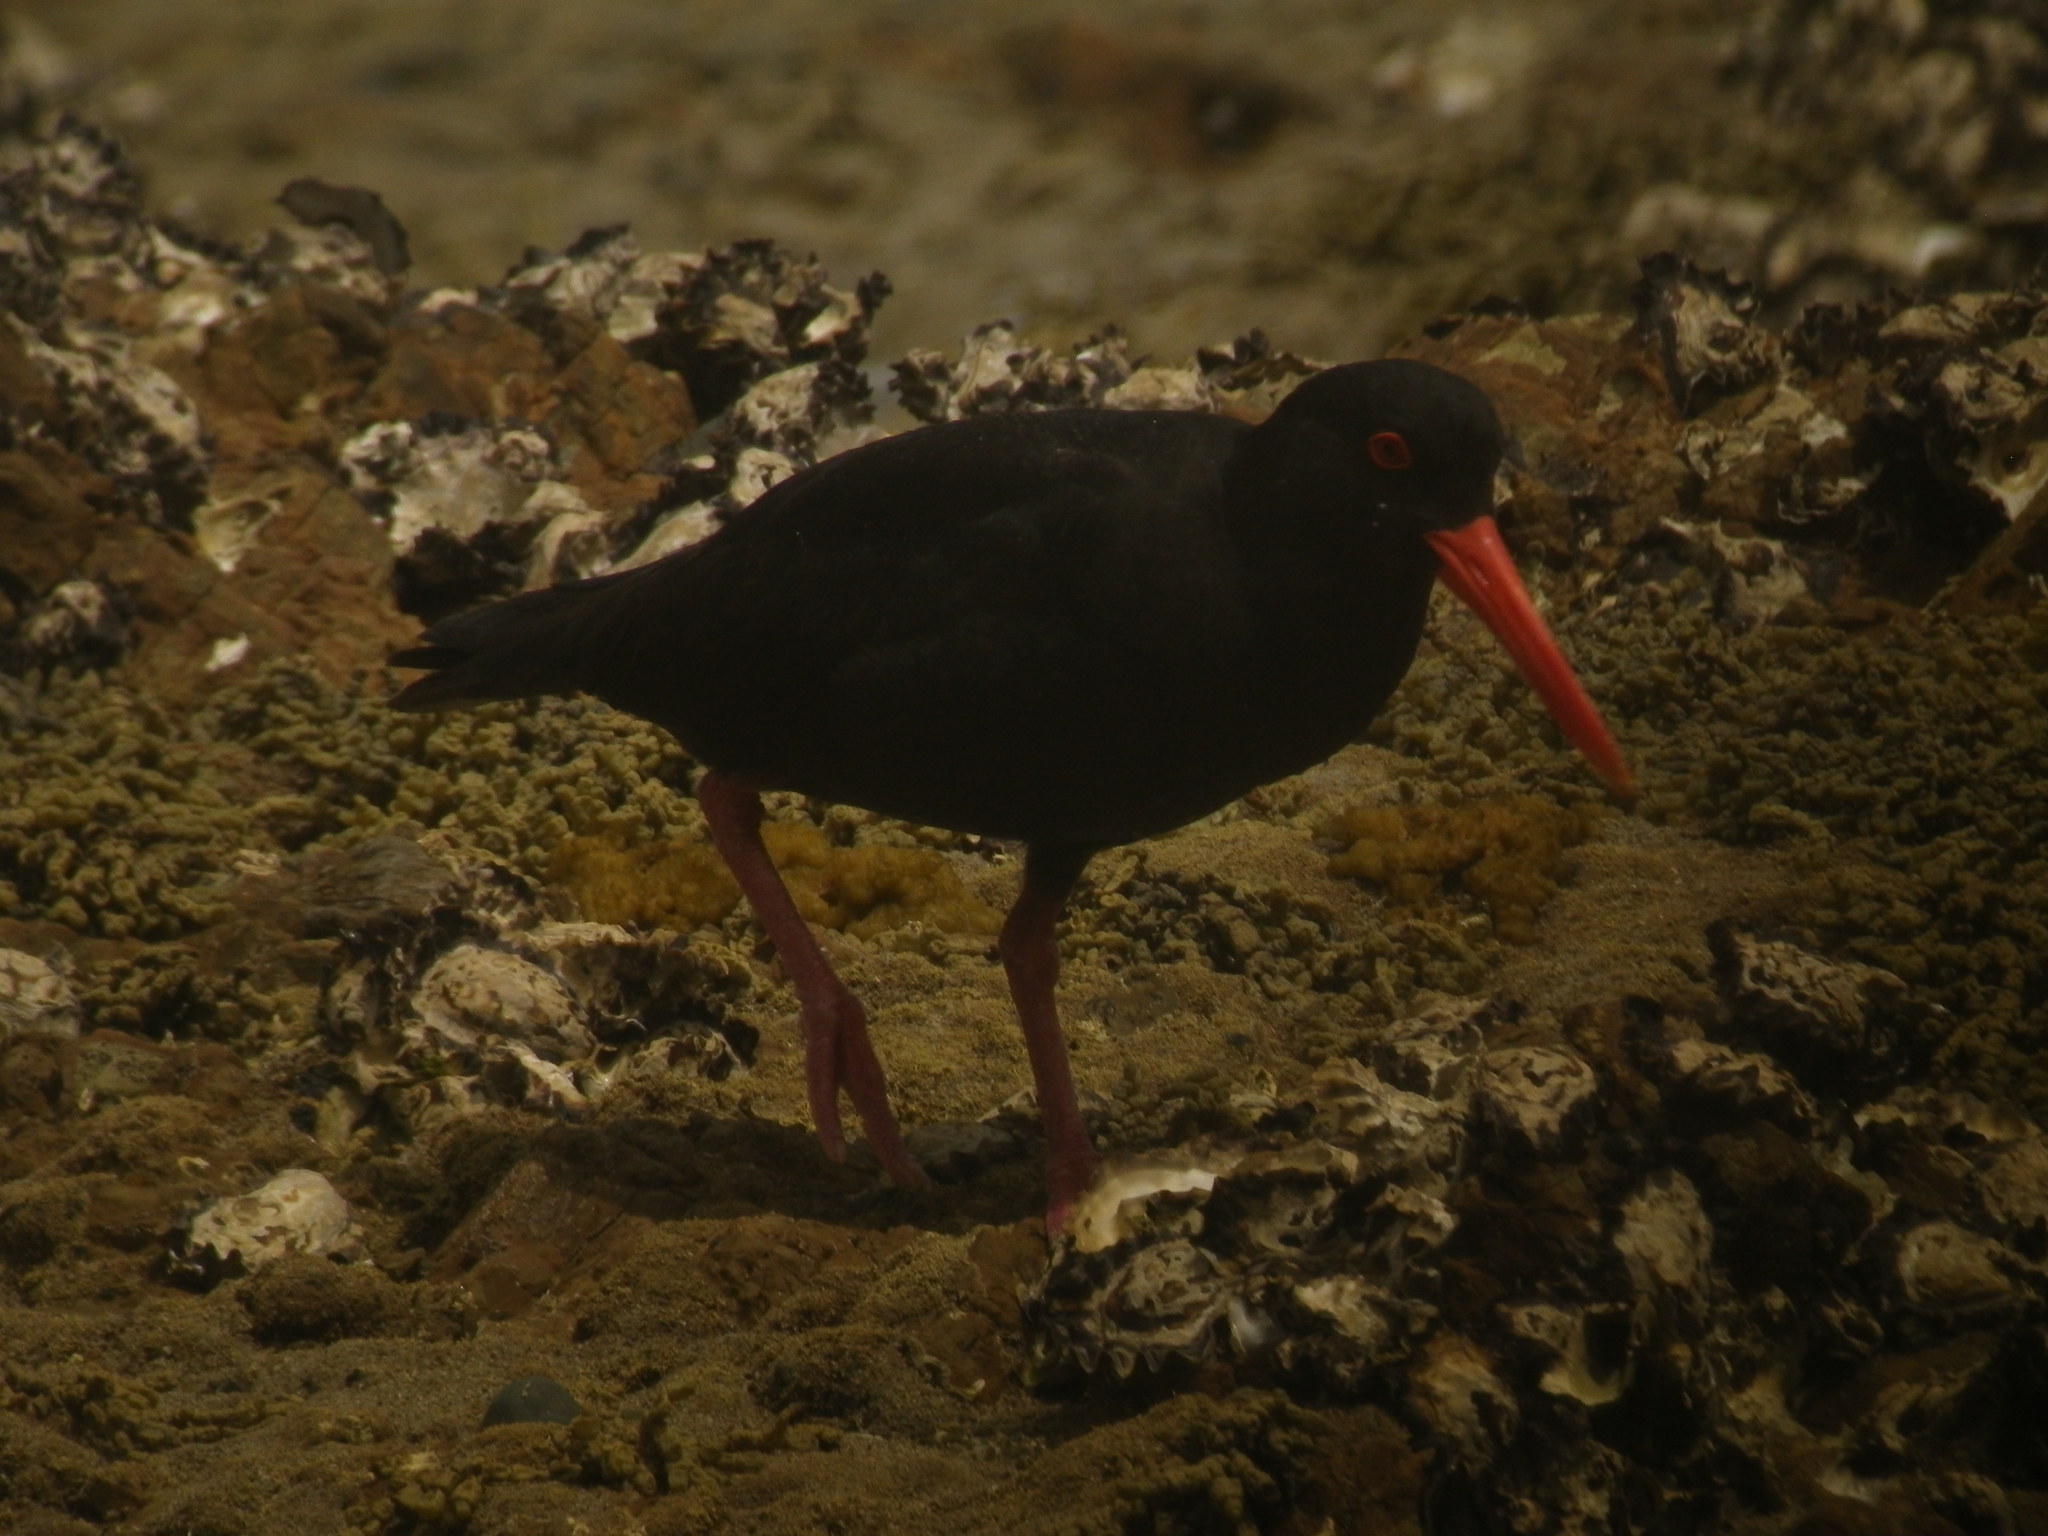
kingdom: Animalia
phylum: Chordata
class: Aves
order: Charadriiformes
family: Haematopodidae
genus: Haematopus
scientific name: Haematopus unicolor
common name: Variable oystercatcher
